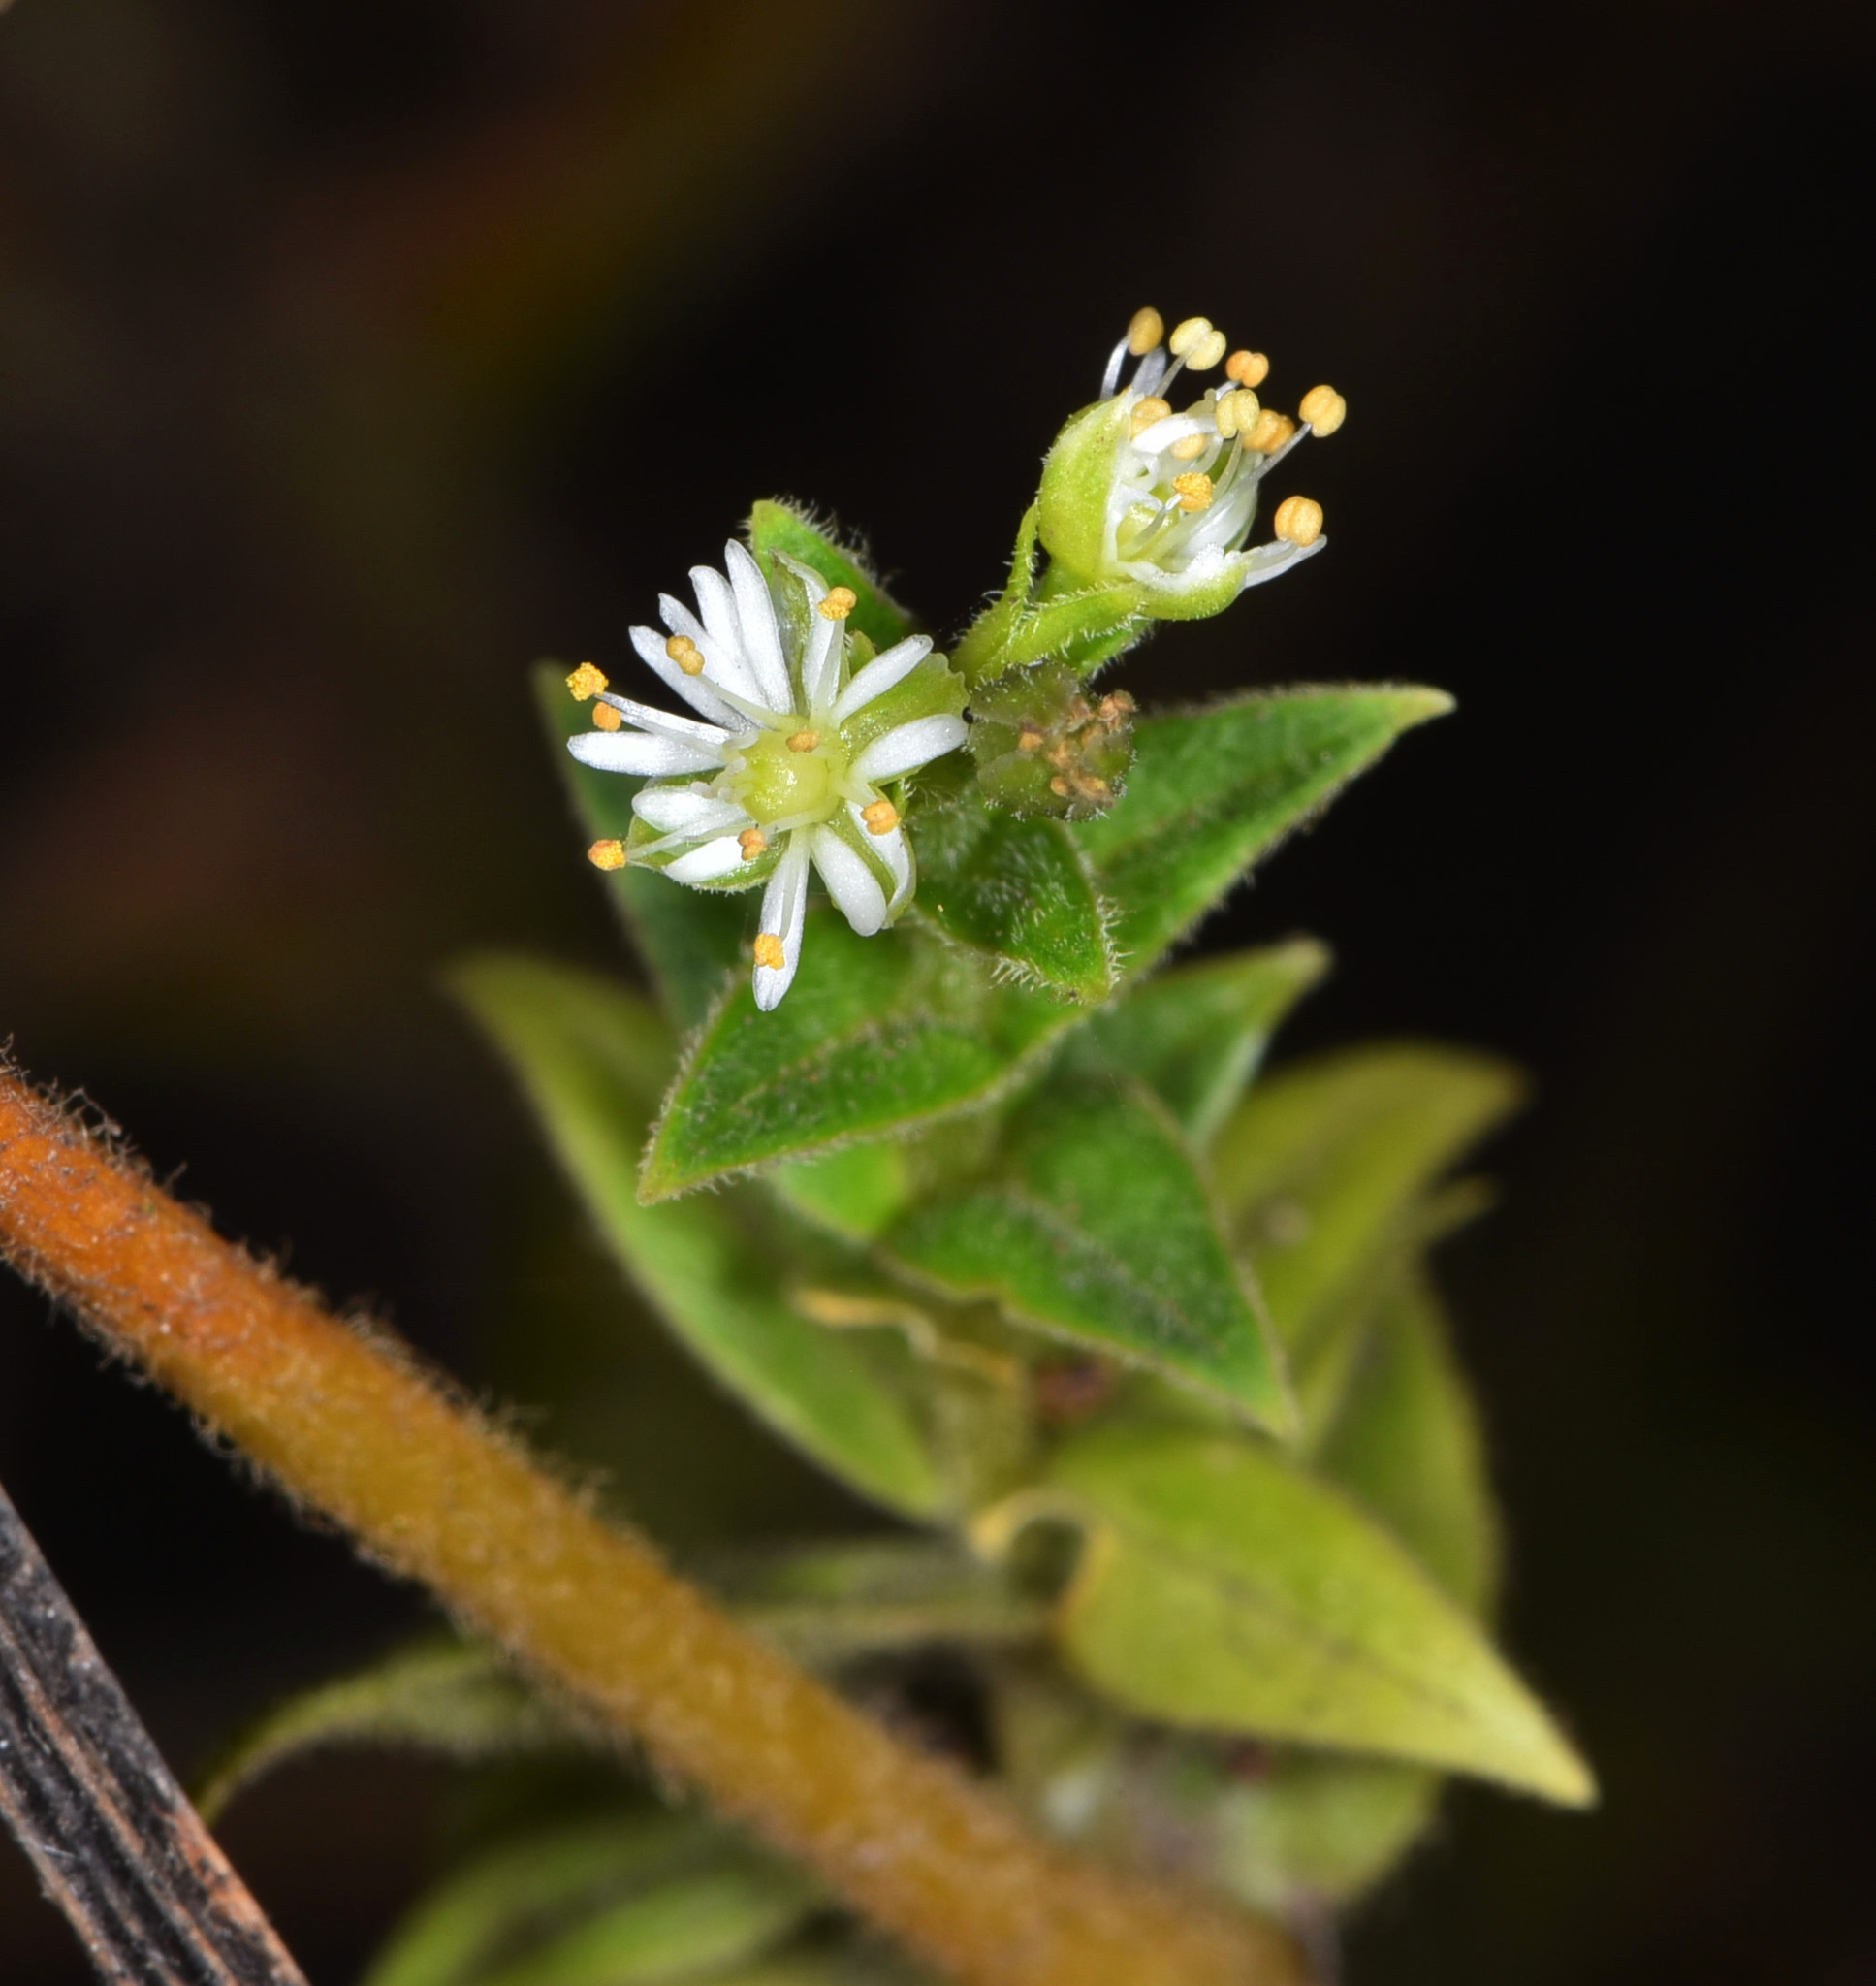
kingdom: Plantae
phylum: Tracheophyta
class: Magnoliopsida
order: Caryophyllales
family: Caryophyllaceae
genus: Stellaria
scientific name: Stellaria littoralis
